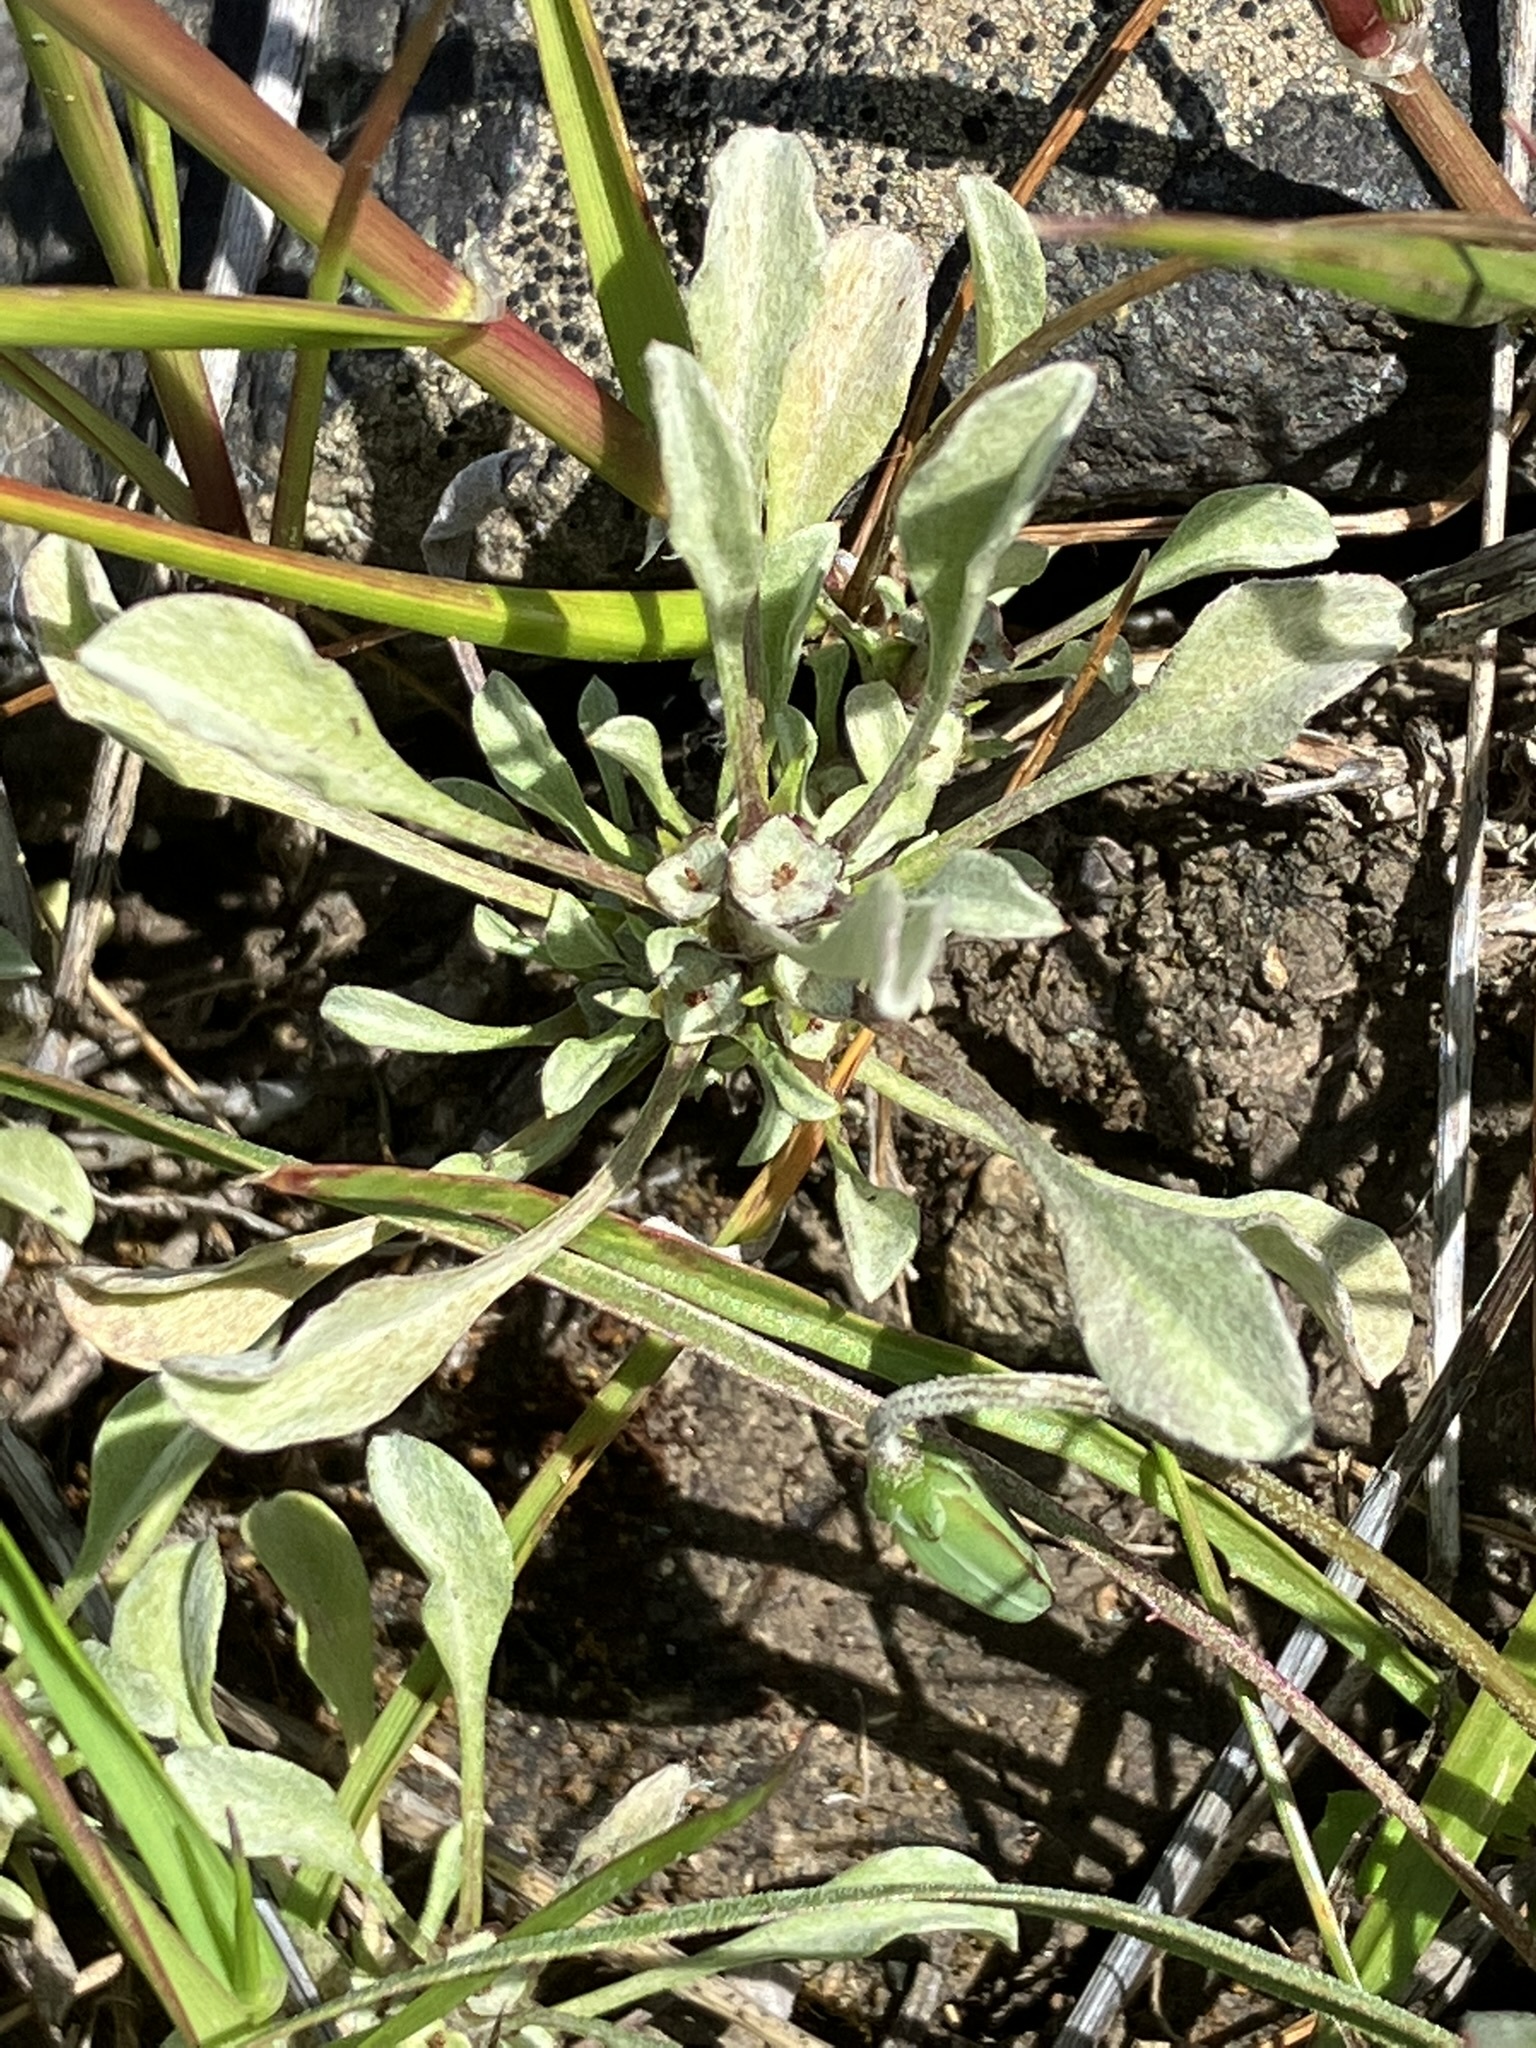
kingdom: Plantae
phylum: Tracheophyta
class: Magnoliopsida
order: Asterales
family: Asteraceae
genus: Hesperevax
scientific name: Hesperevax sparsiflora
